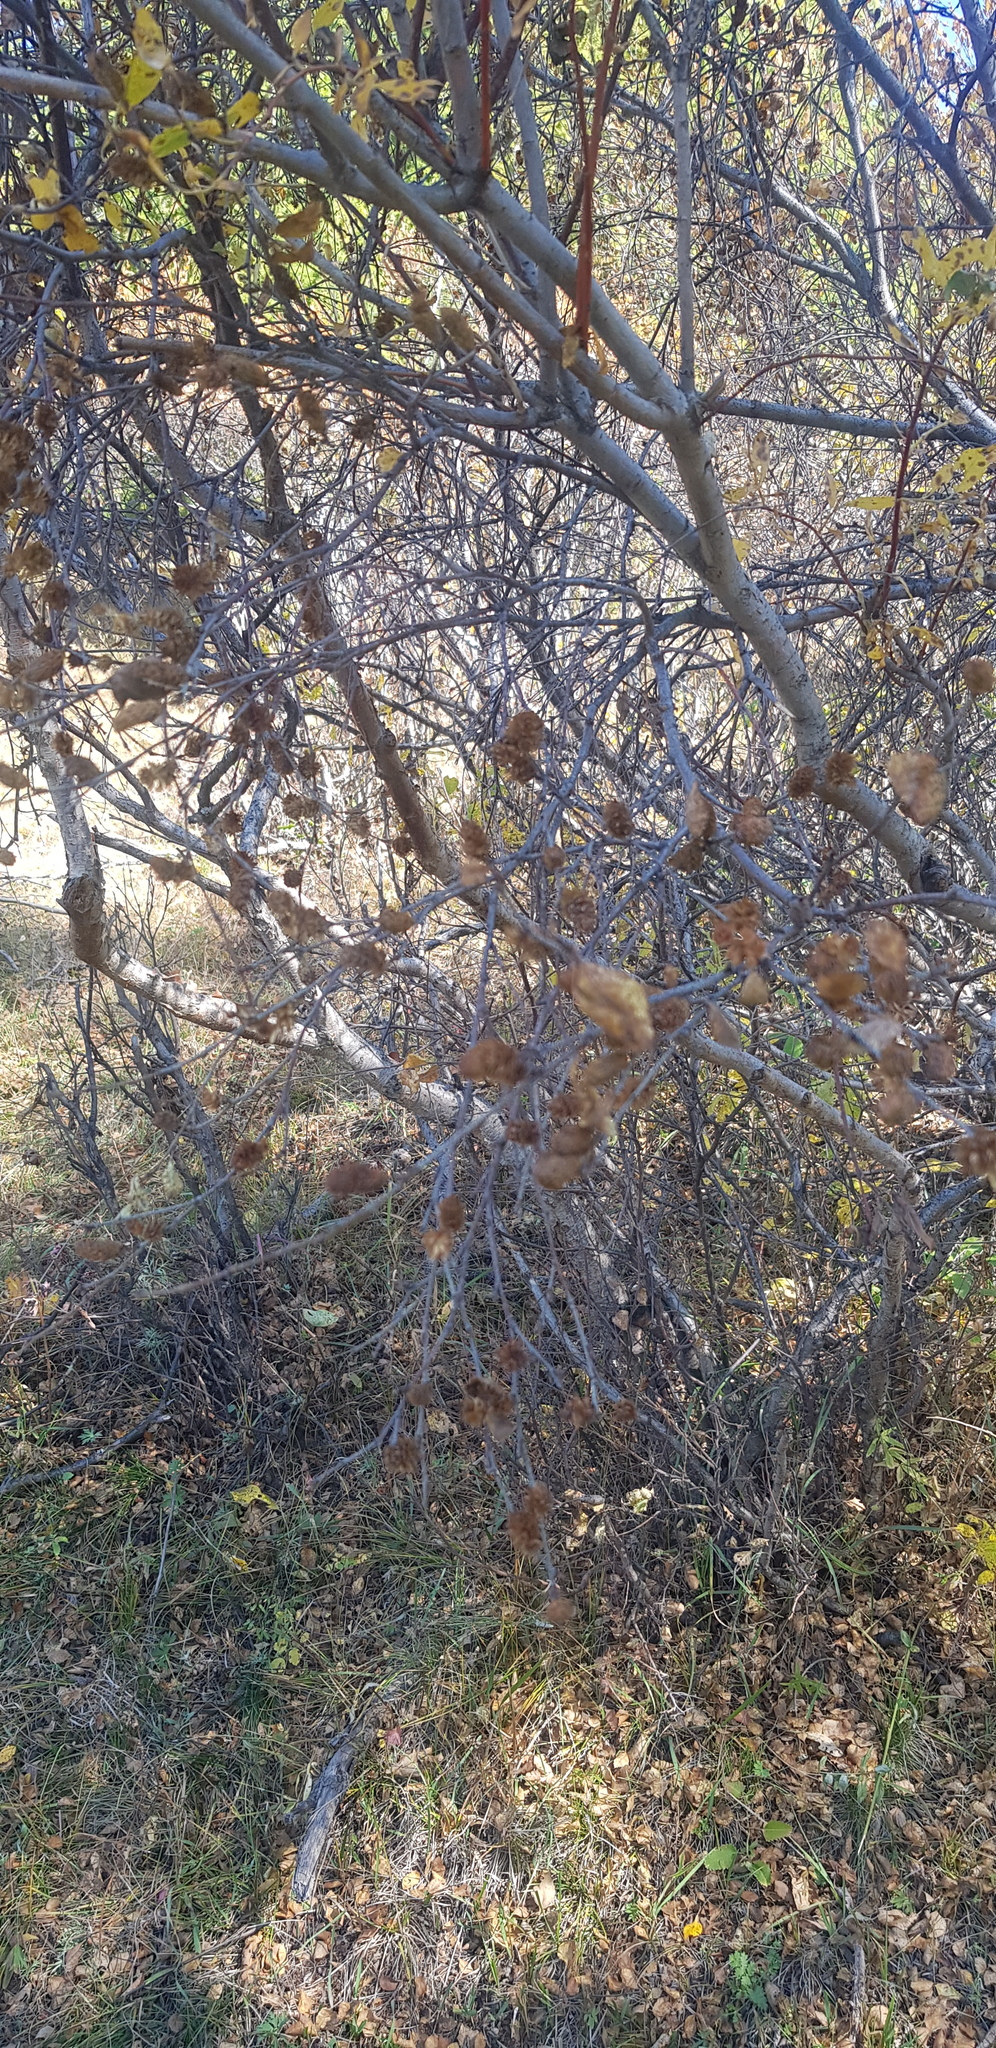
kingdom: Plantae
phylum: Tracheophyta
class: Magnoliopsida
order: Fagales
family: Betulaceae
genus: Betula
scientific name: Betula fruticosa
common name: Japanese bog birch
